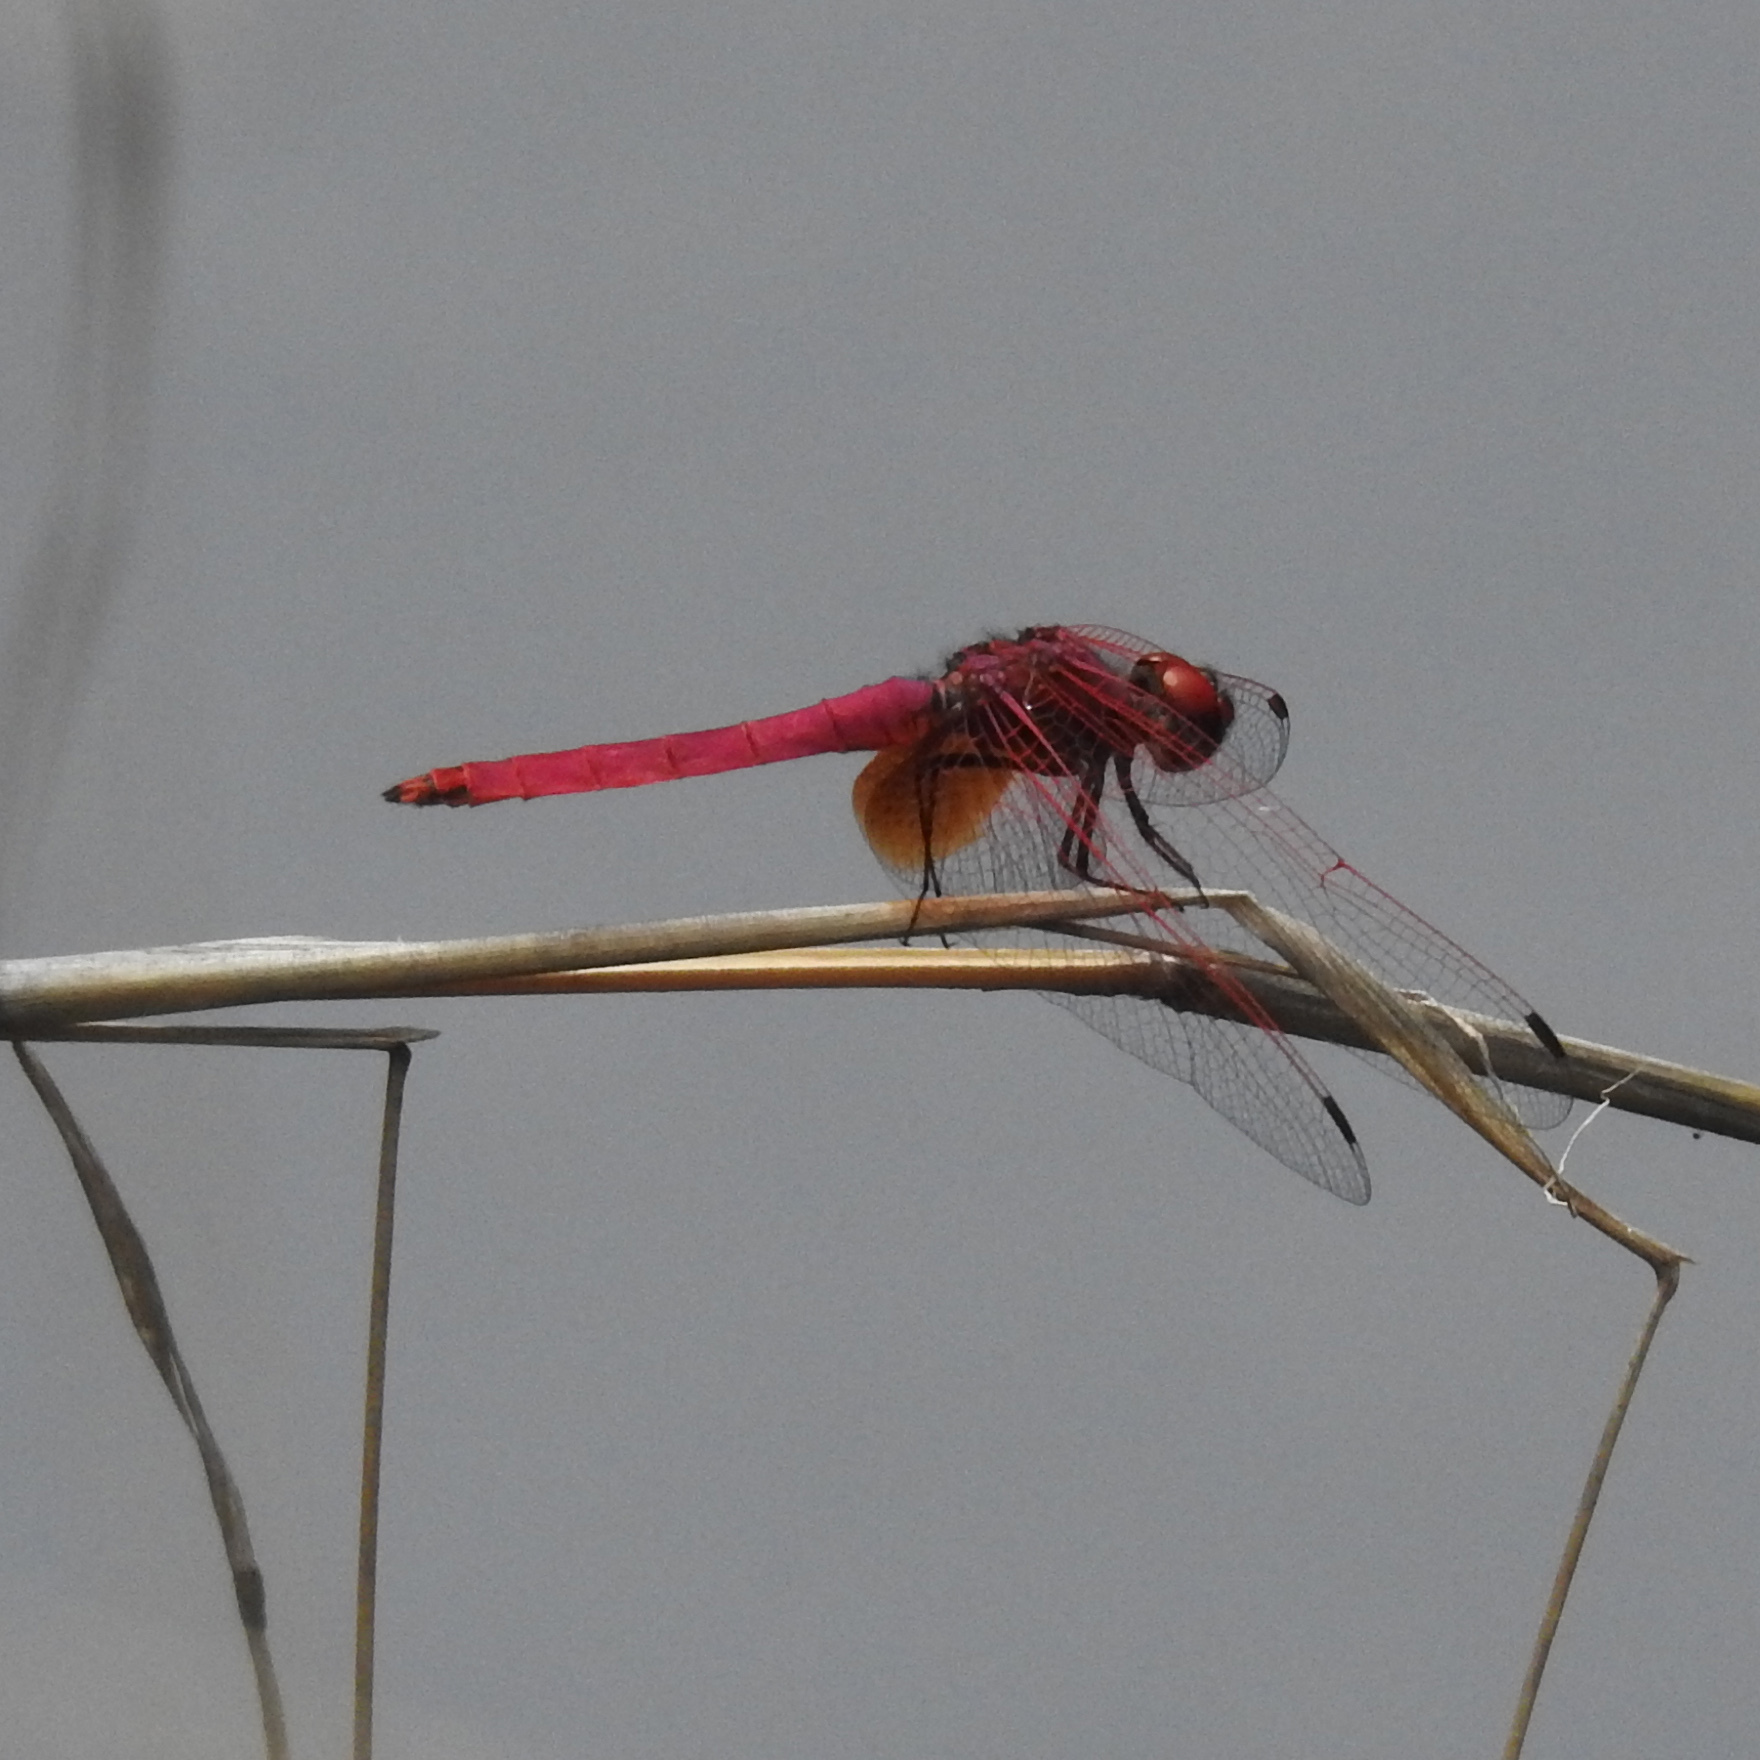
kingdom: Animalia
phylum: Arthropoda
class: Insecta
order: Odonata
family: Libellulidae
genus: Trithemis
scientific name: Trithemis aurora
